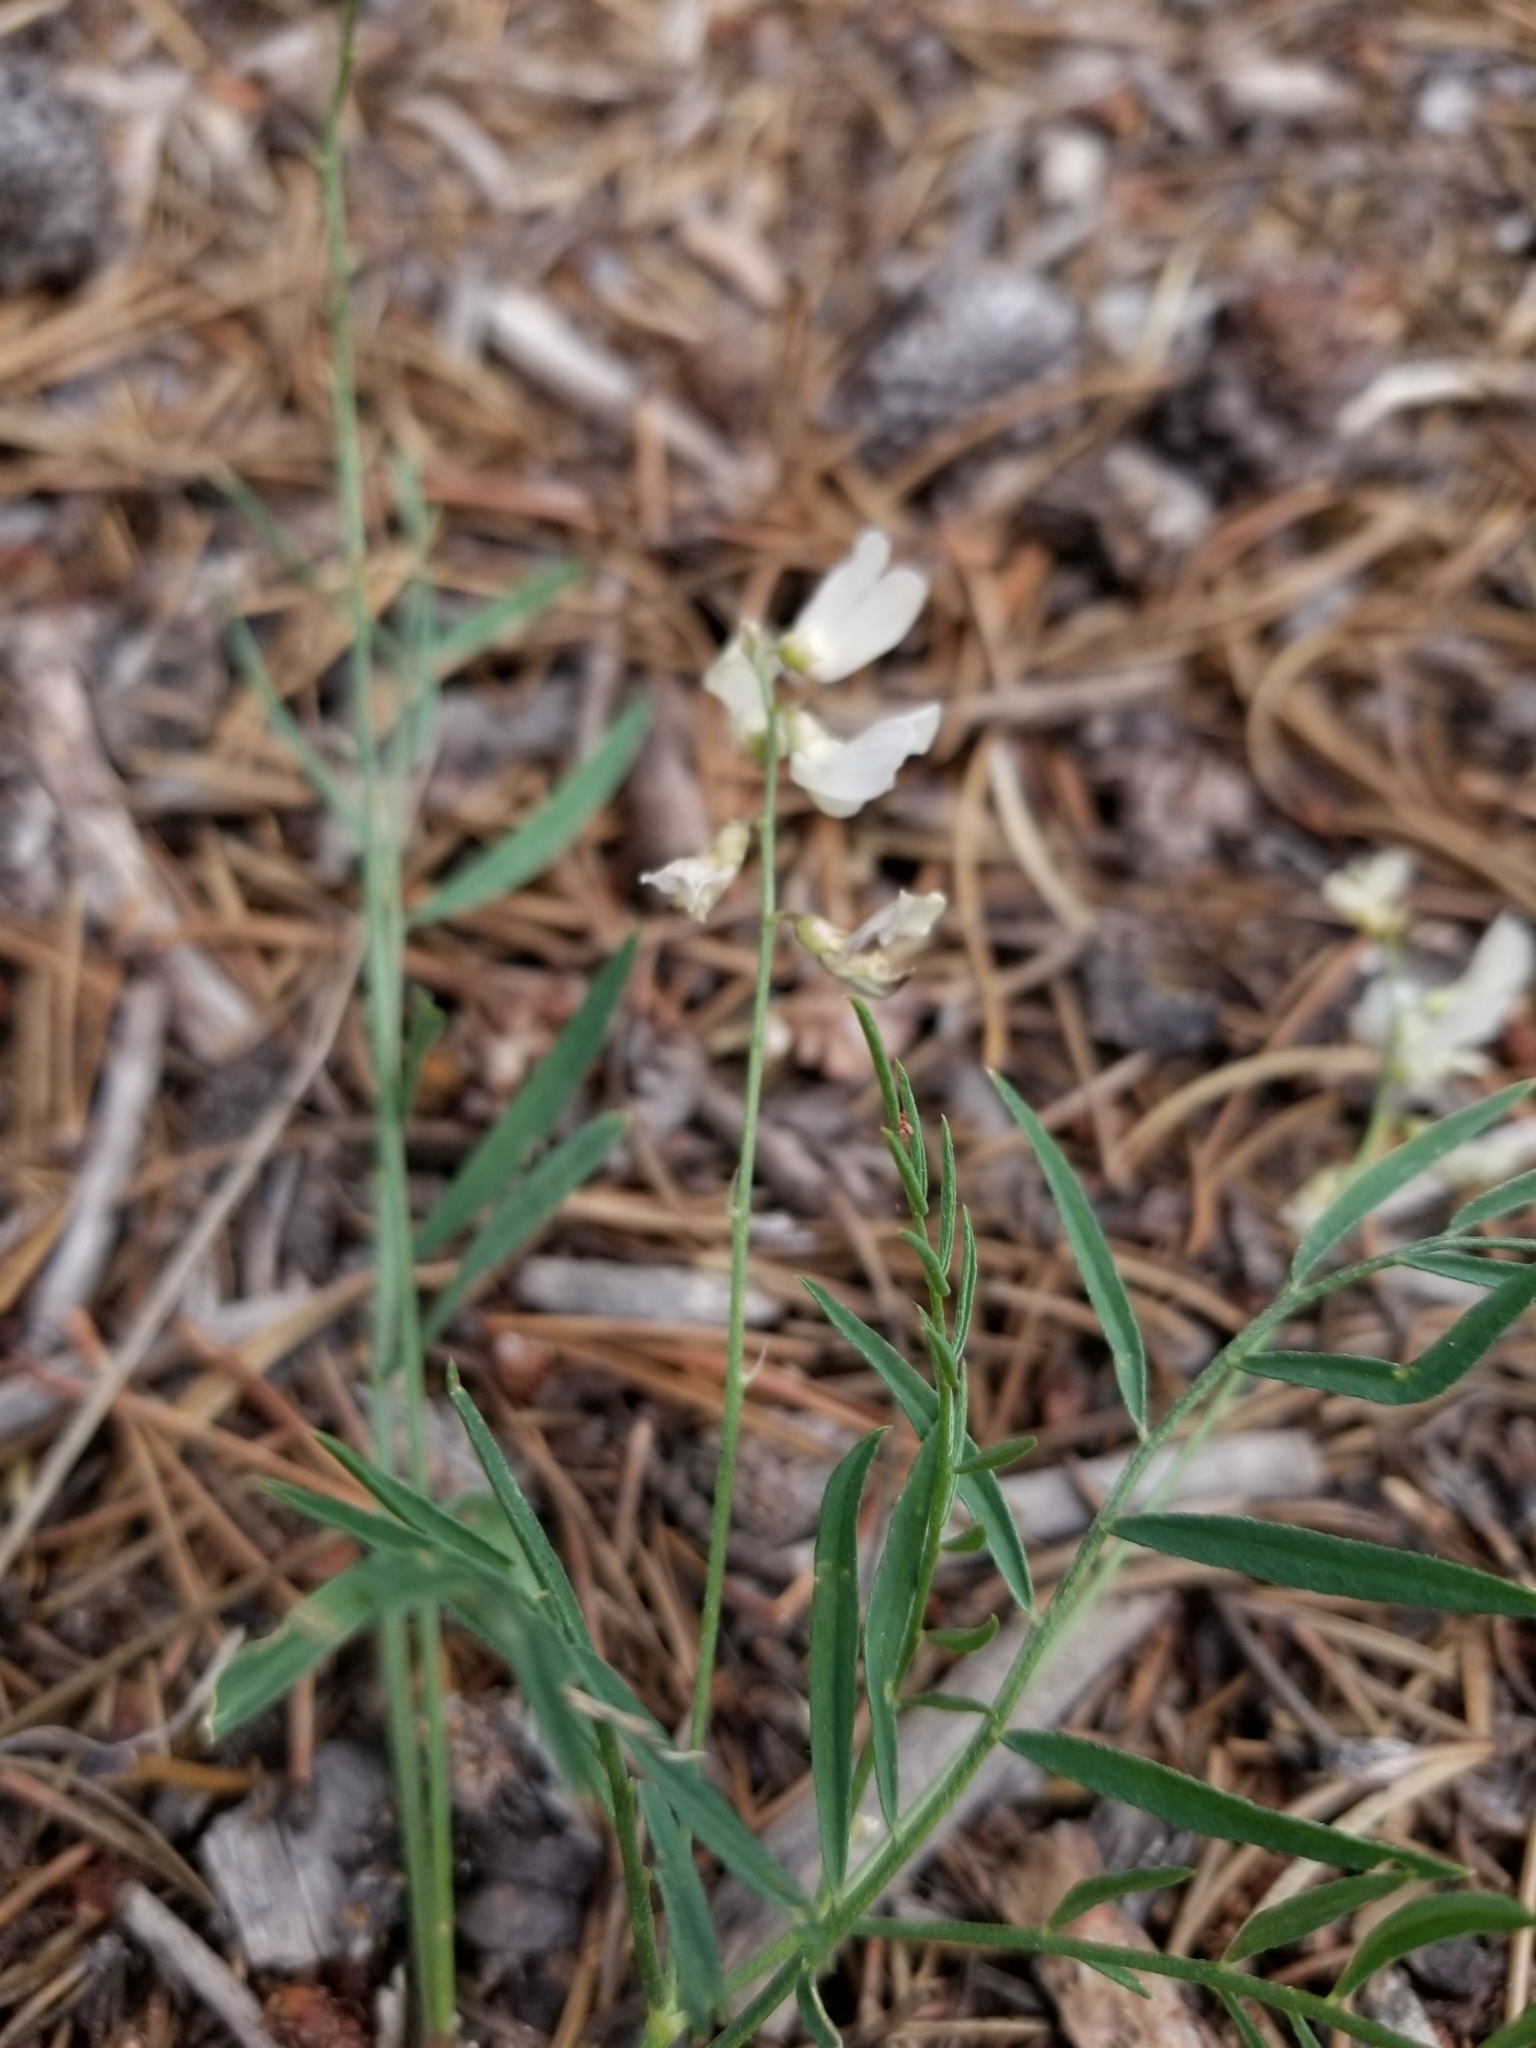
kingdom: Plantae
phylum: Tracheophyta
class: Magnoliopsida
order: Fabales
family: Fabaceae
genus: Astragalus
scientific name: Astragalus miser
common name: Timber milkvetch
